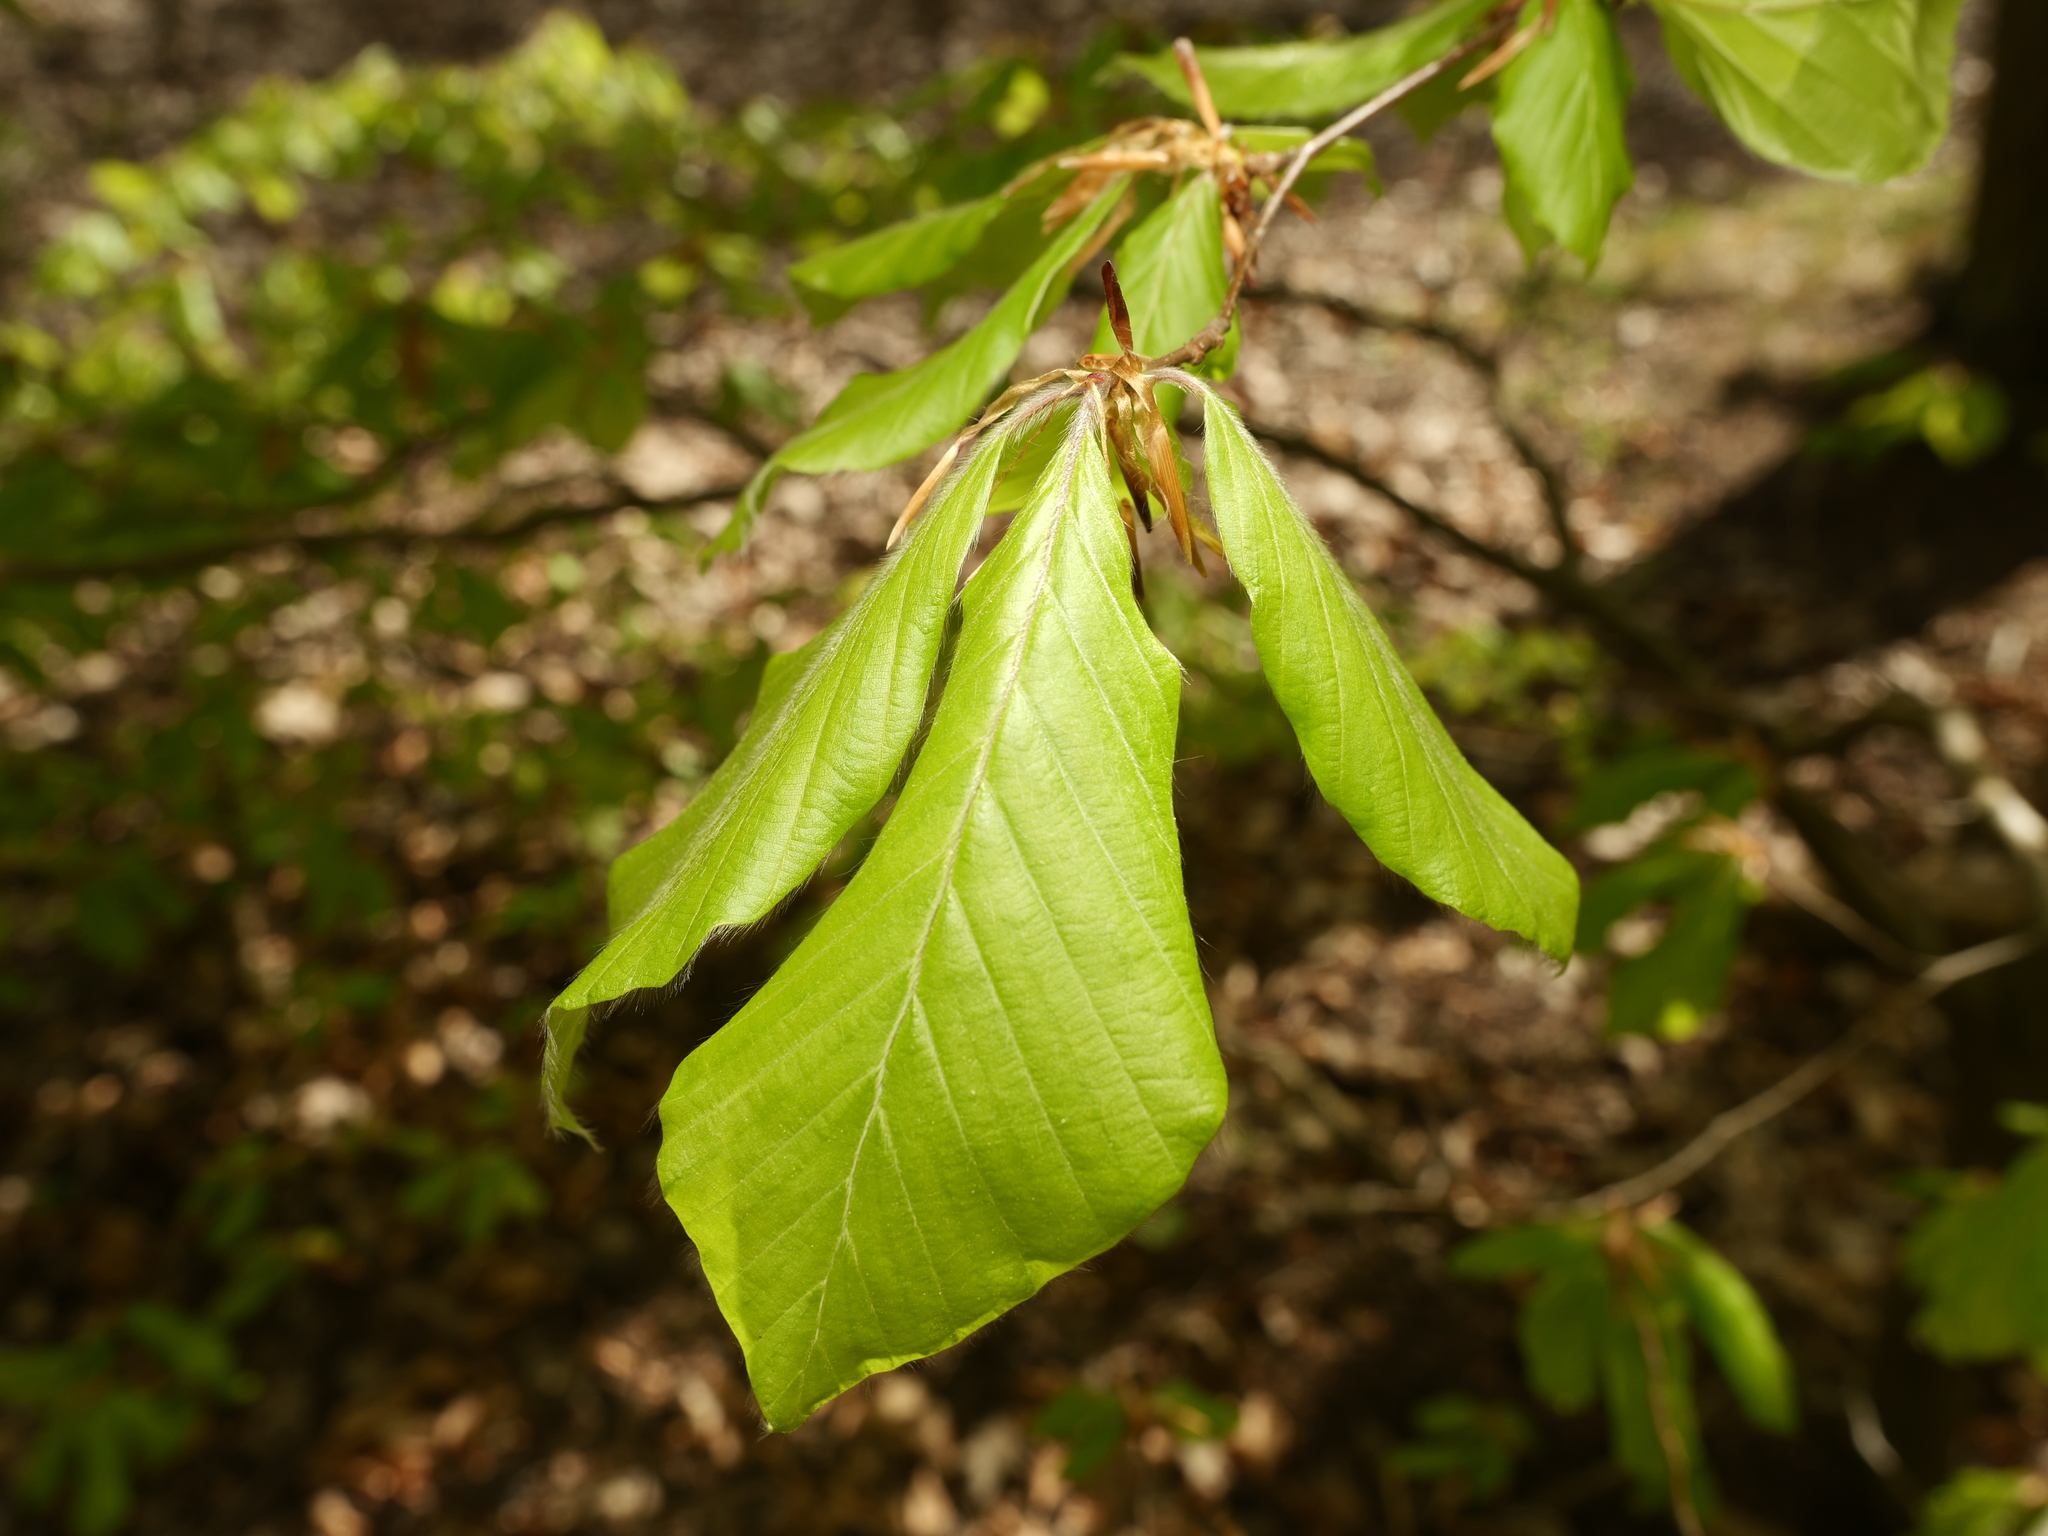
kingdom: Plantae
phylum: Tracheophyta
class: Magnoliopsida
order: Fagales
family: Fagaceae
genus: Fagus
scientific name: Fagus sylvatica
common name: Beech
